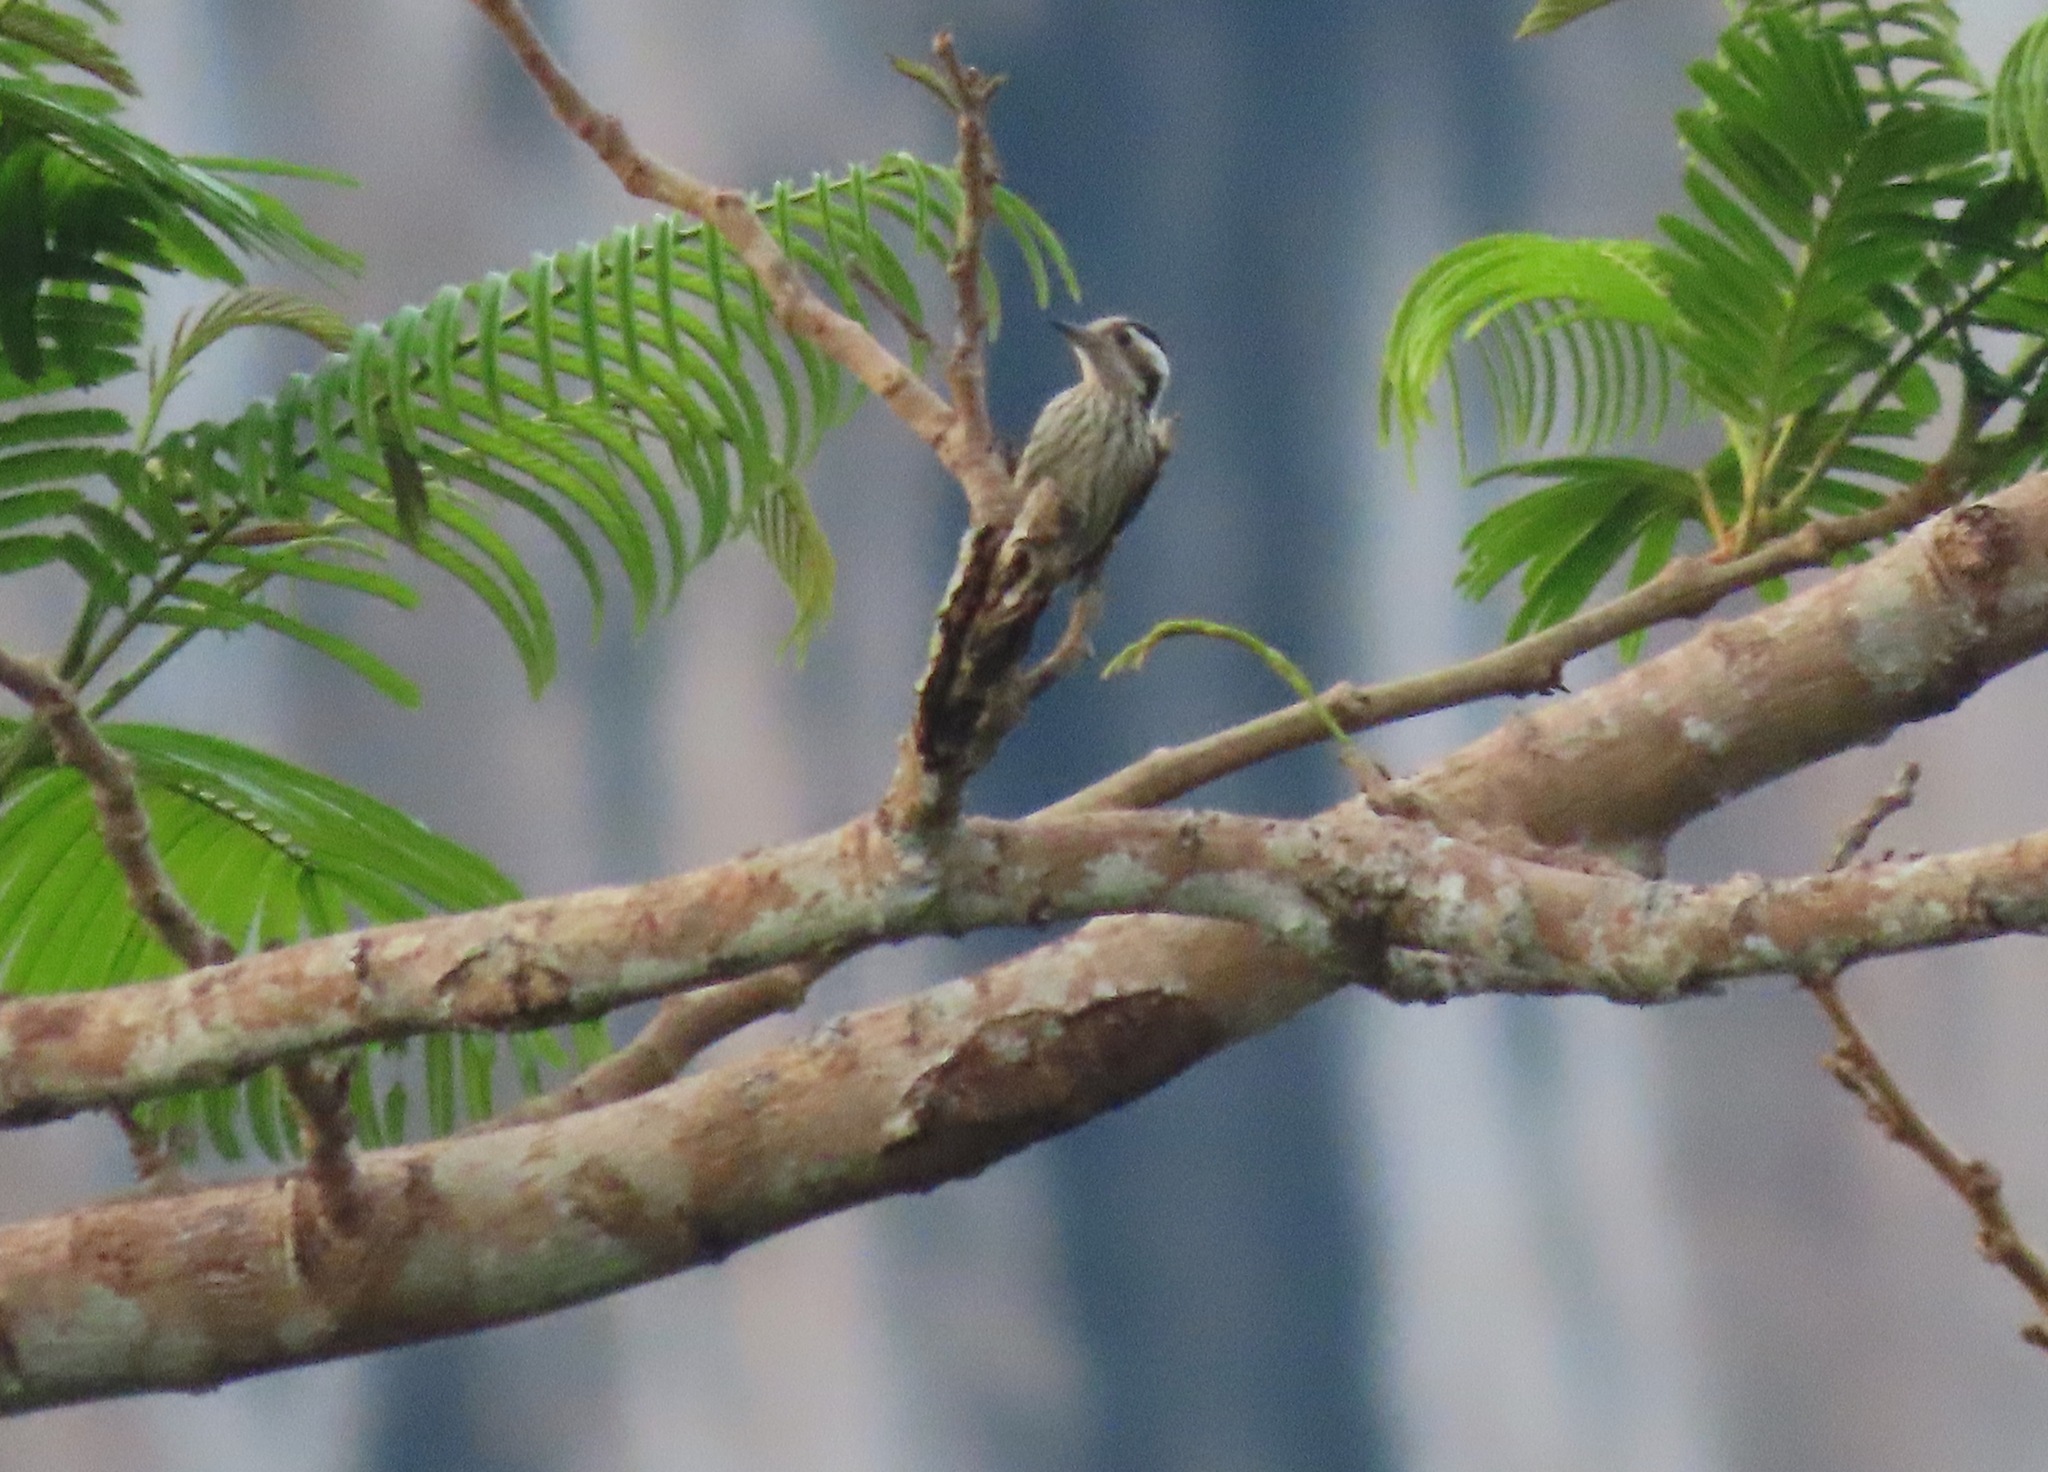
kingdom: Animalia
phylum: Chordata
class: Aves
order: Piciformes
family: Picidae
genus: Yungipicus
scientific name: Yungipicus canicapillus
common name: Grey-capped pygmy woodpecker
